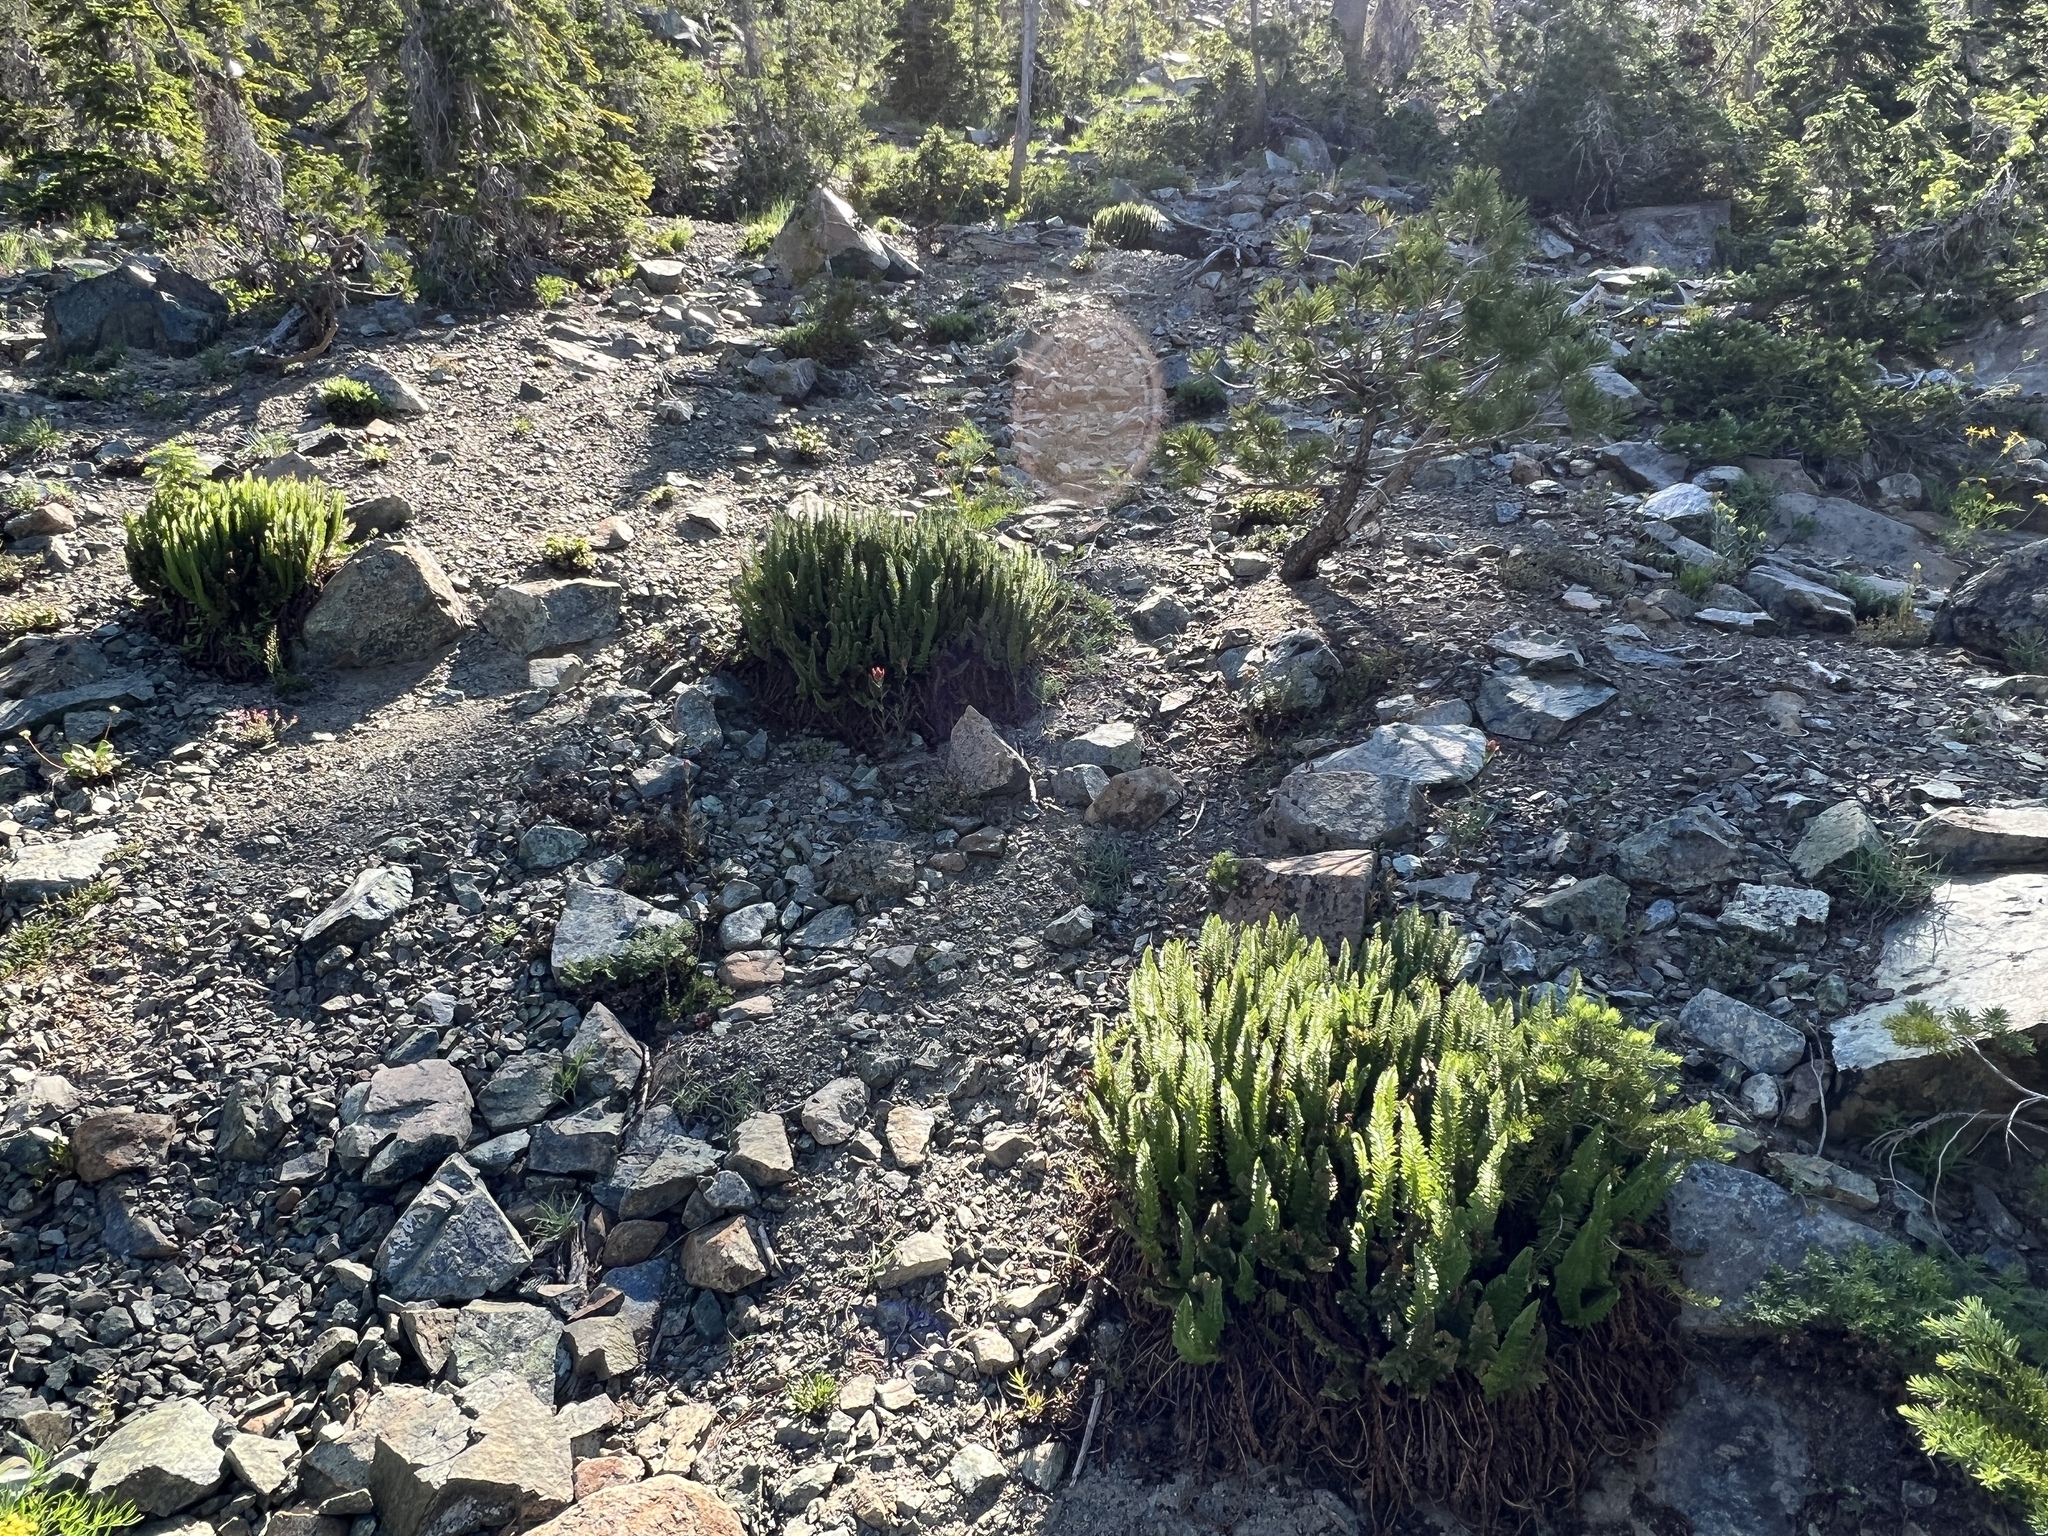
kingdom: Plantae
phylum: Tracheophyta
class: Polypodiopsida
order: Polypodiales
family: Dryopteridaceae
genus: Polystichum
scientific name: Polystichum lemmonii
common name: Lemmon's holly fern
